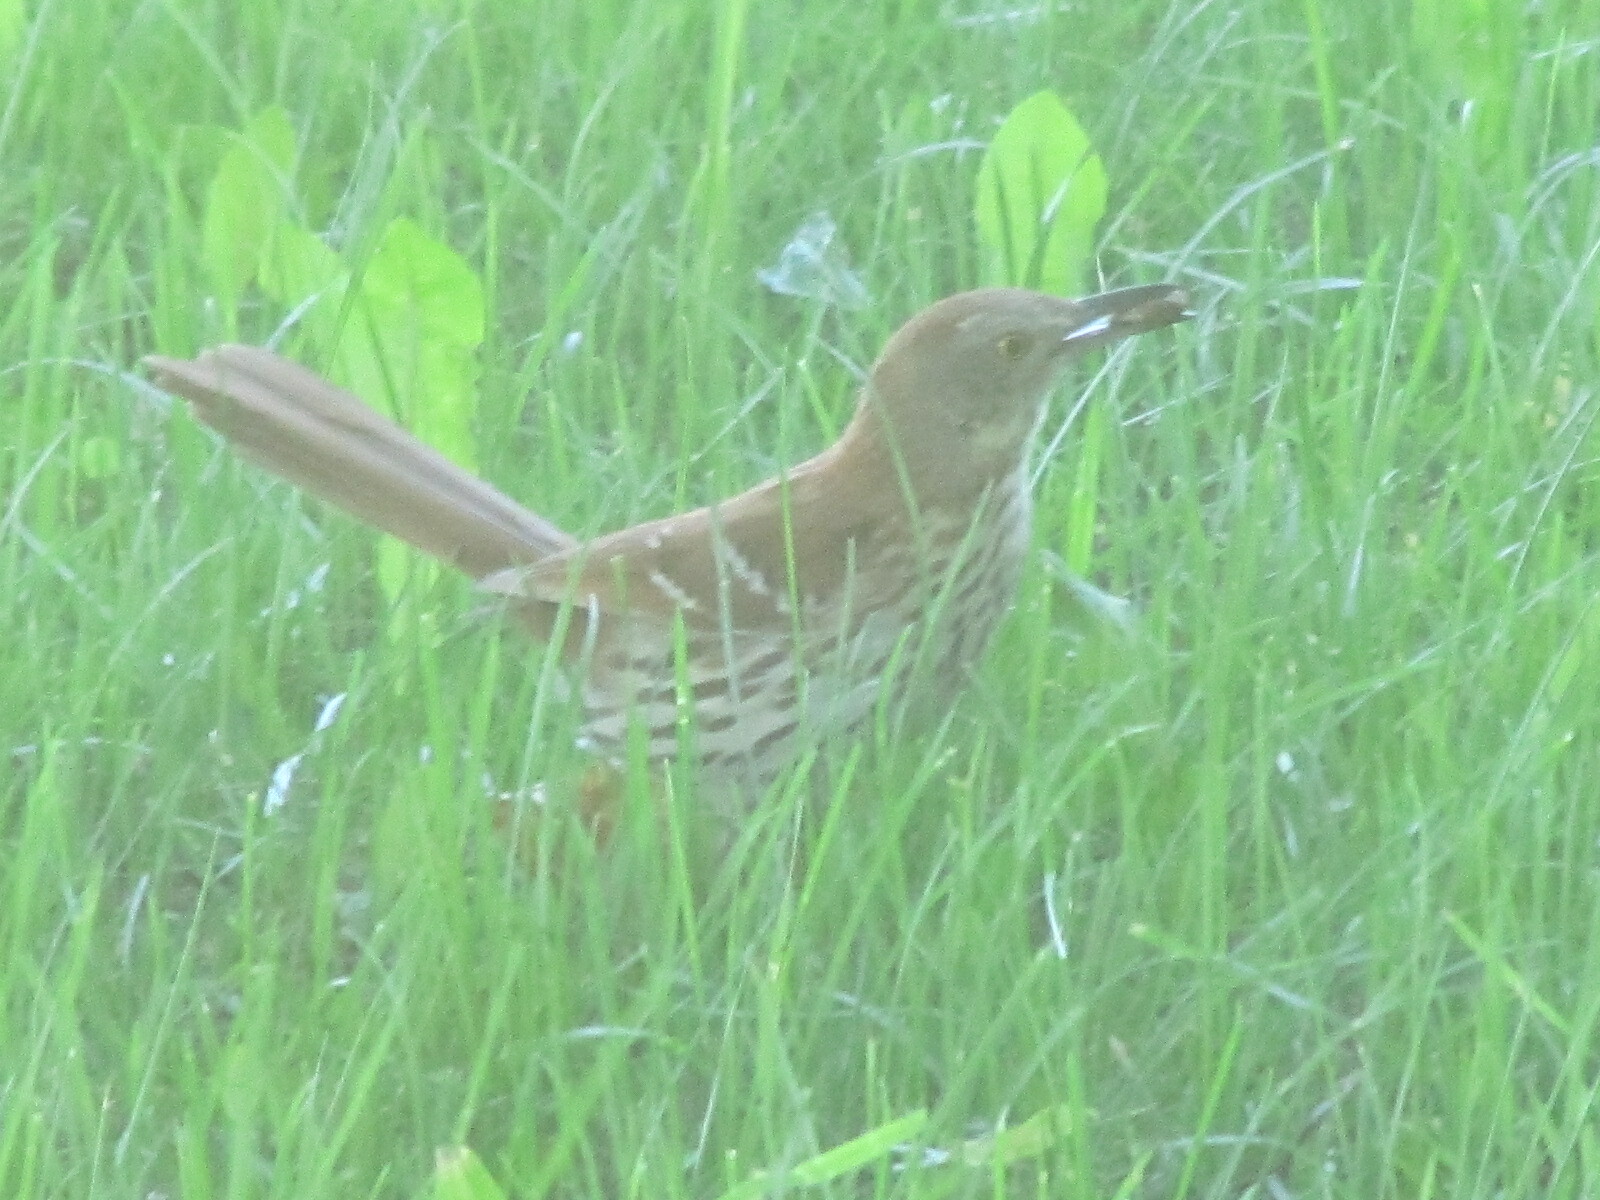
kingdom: Animalia
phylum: Chordata
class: Aves
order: Passeriformes
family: Mimidae
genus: Toxostoma
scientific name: Toxostoma rufum
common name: Brown thrasher
